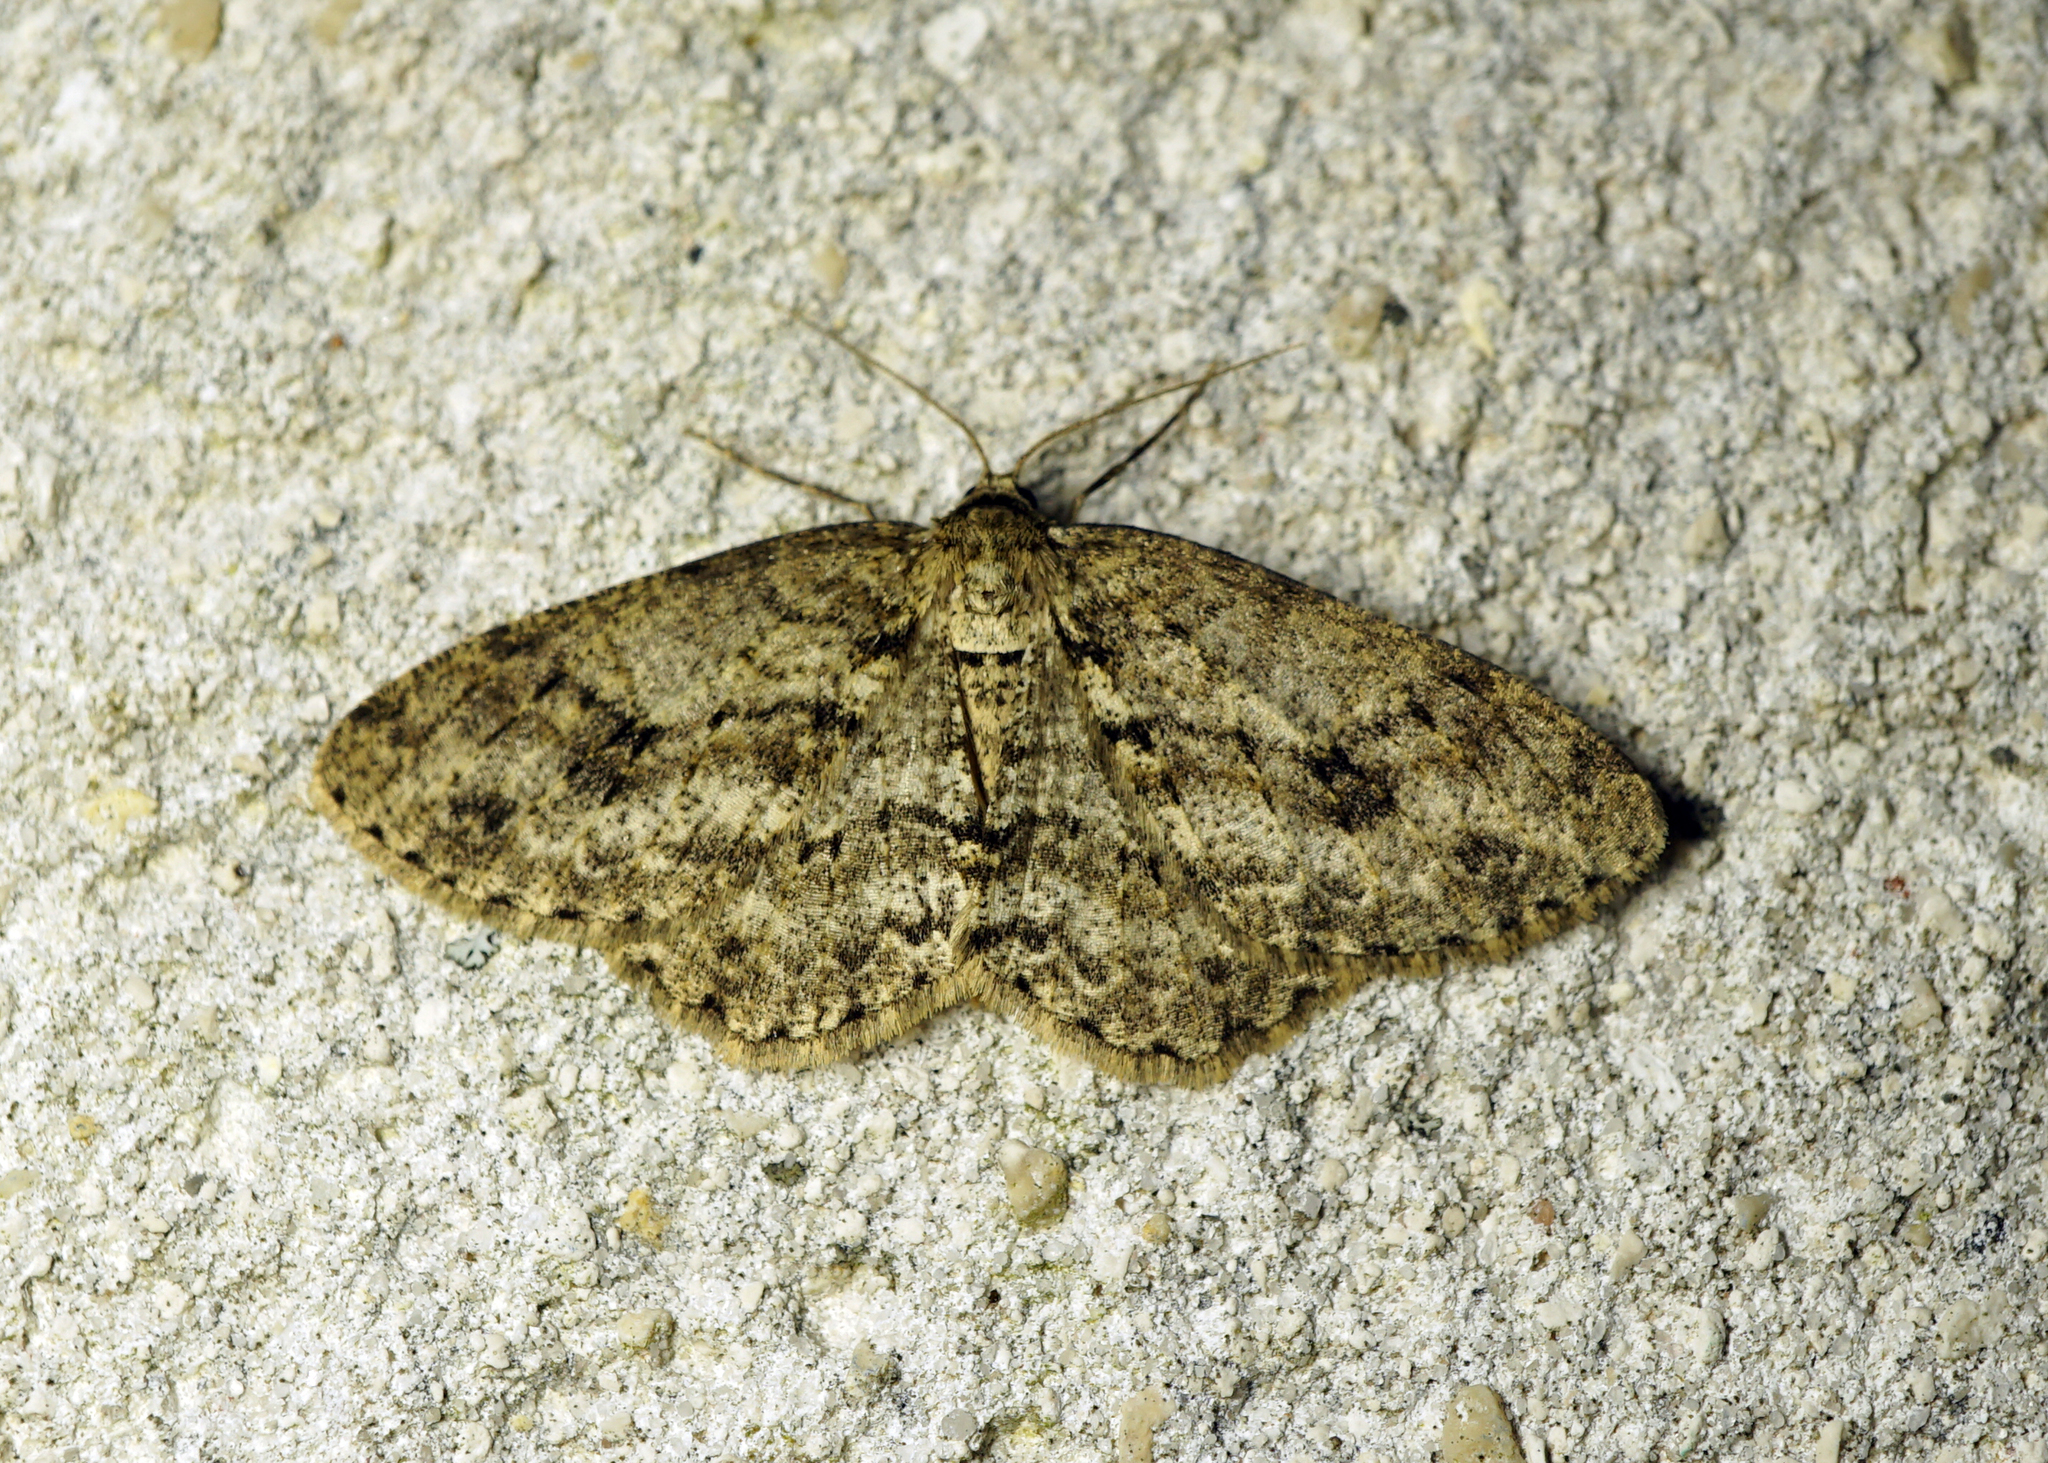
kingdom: Animalia
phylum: Arthropoda
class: Insecta
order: Lepidoptera
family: Geometridae
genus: Ectropis
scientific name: Ectropis crepuscularia
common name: Engrailed
